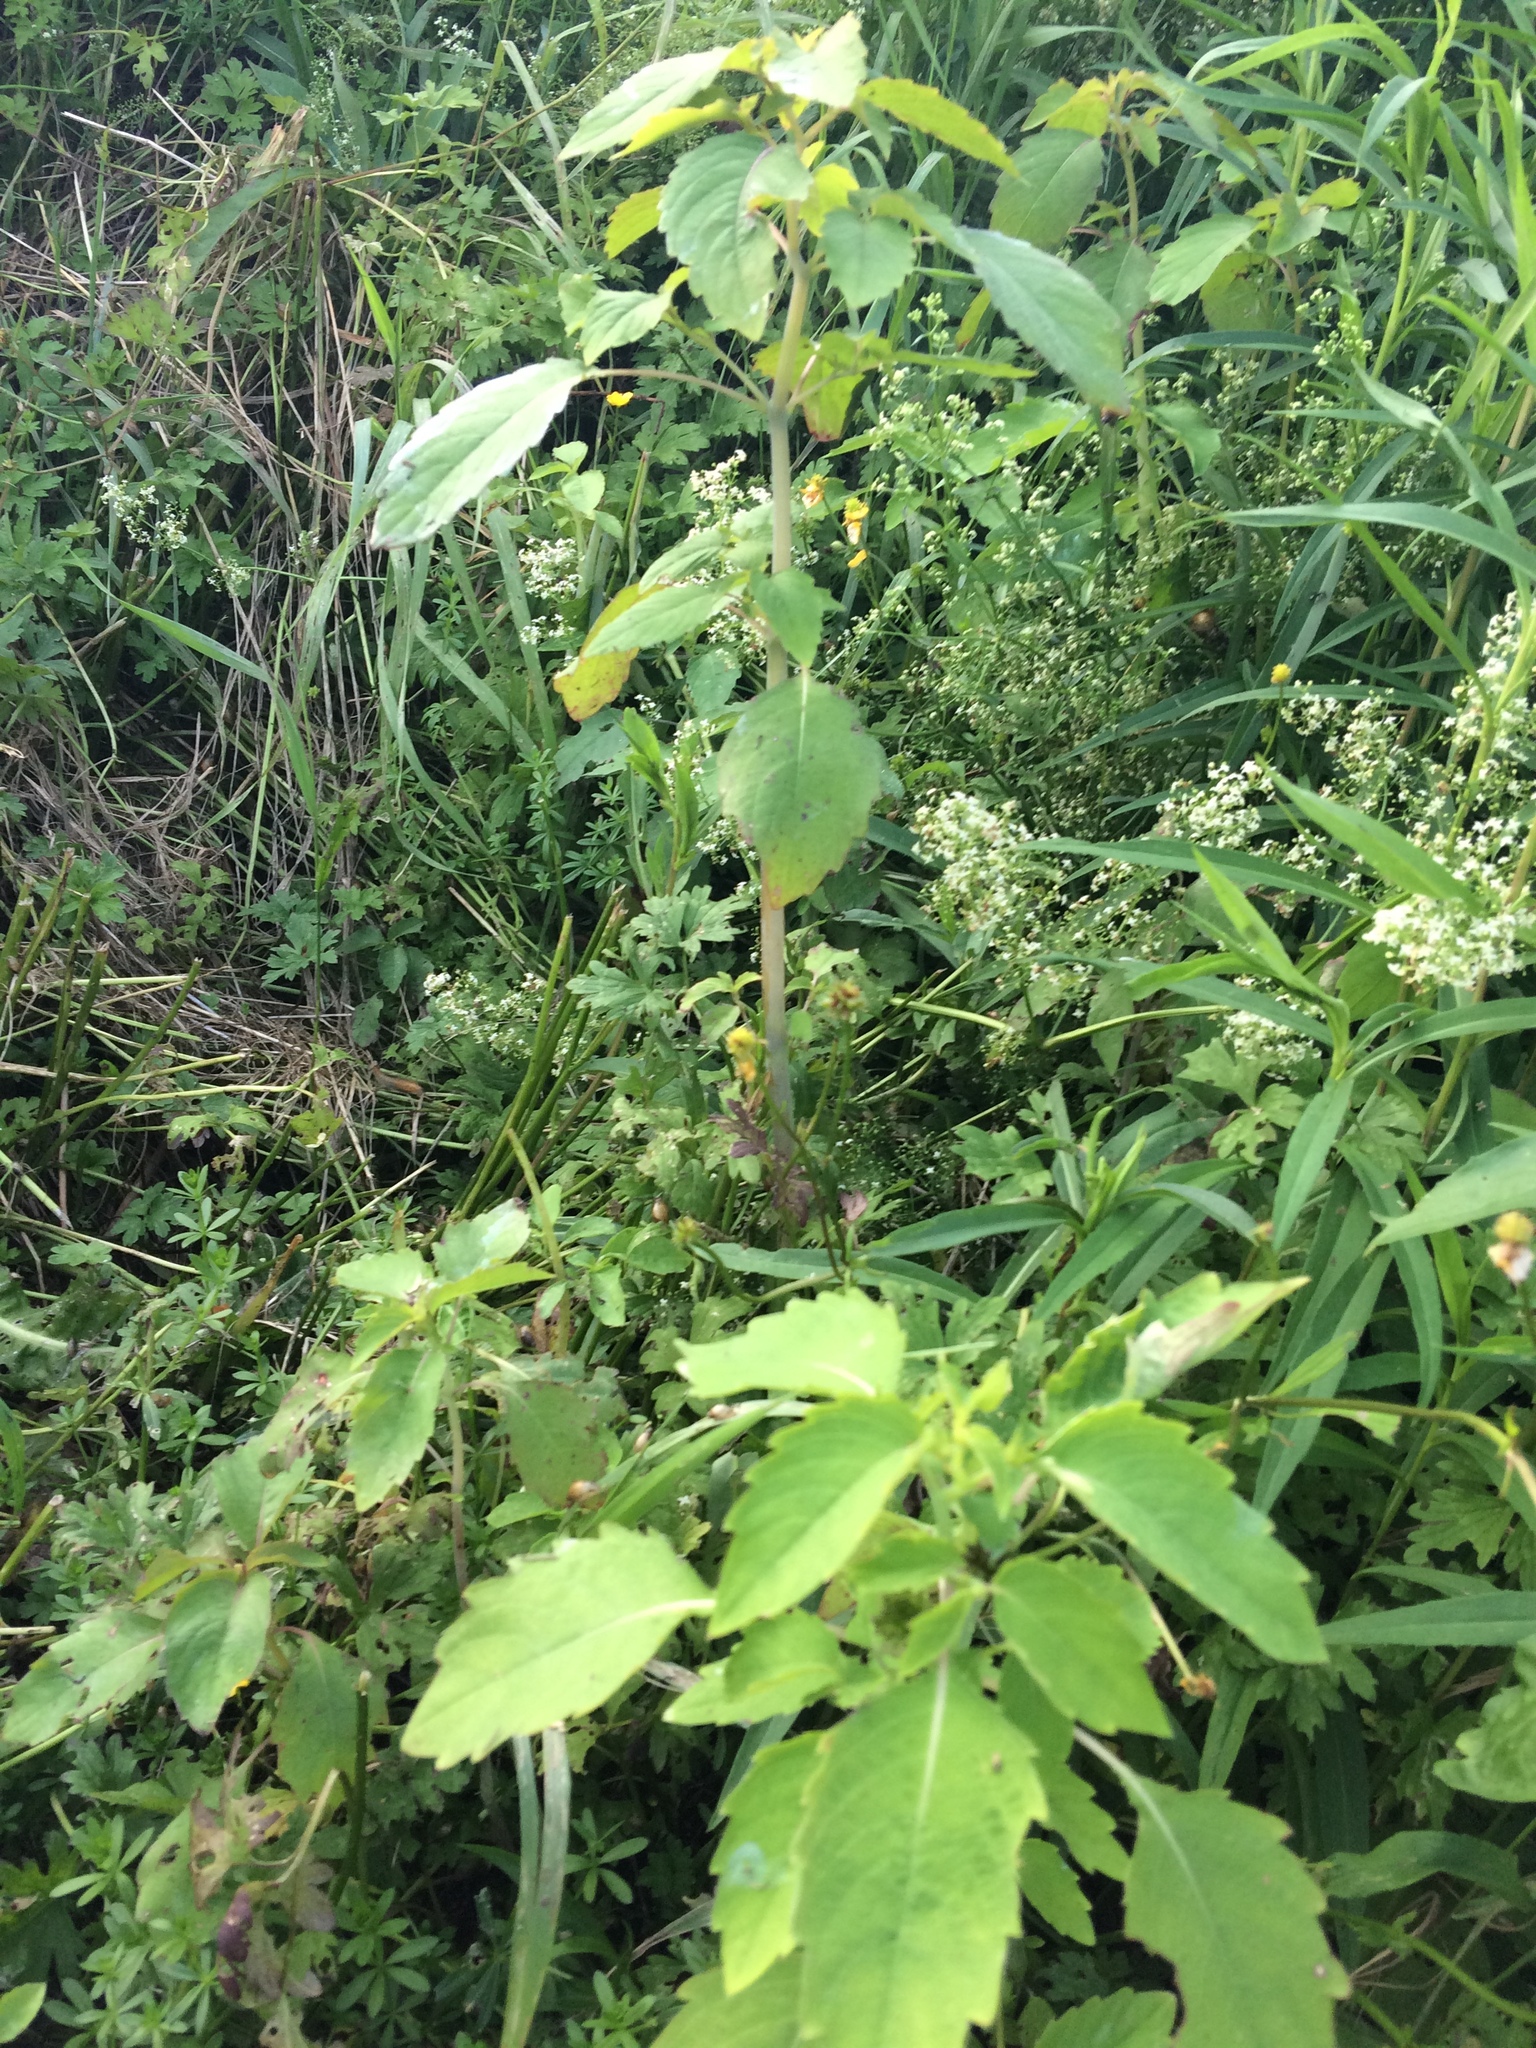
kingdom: Plantae
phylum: Tracheophyta
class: Magnoliopsida
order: Ericales
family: Balsaminaceae
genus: Impatiens
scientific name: Impatiens capensis
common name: Orange balsam
